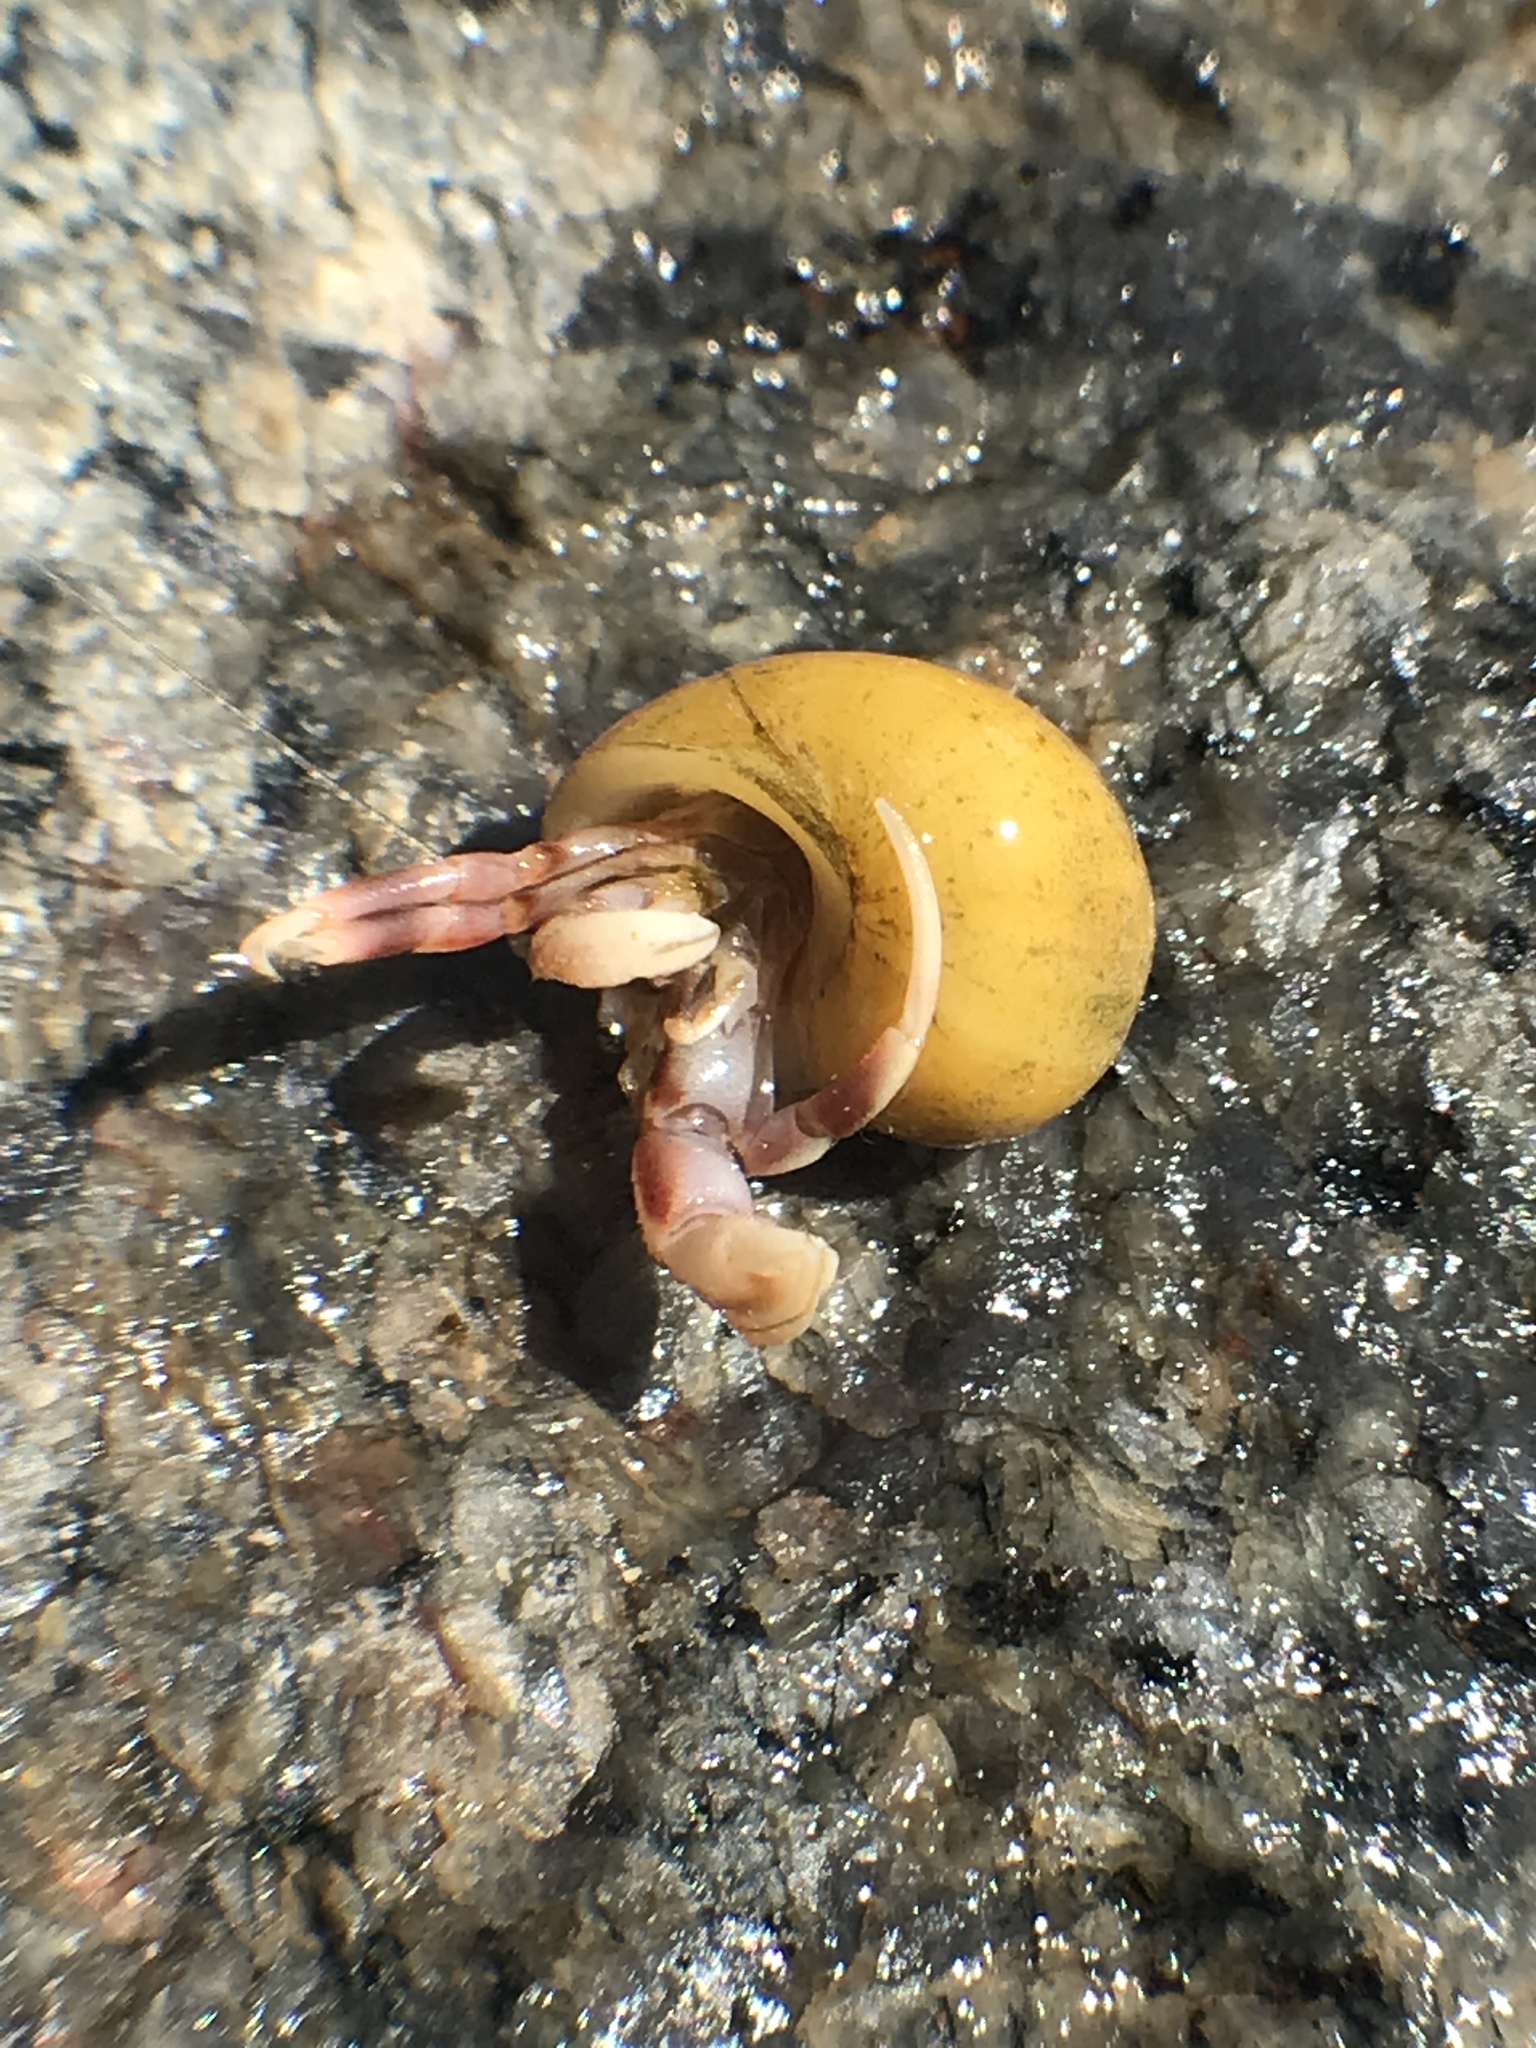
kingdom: Animalia
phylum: Arthropoda
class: Malacostraca
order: Decapoda
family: Paguridae
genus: Pagurus
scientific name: Pagurus longicarpus
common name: Long-armed hermit crab
